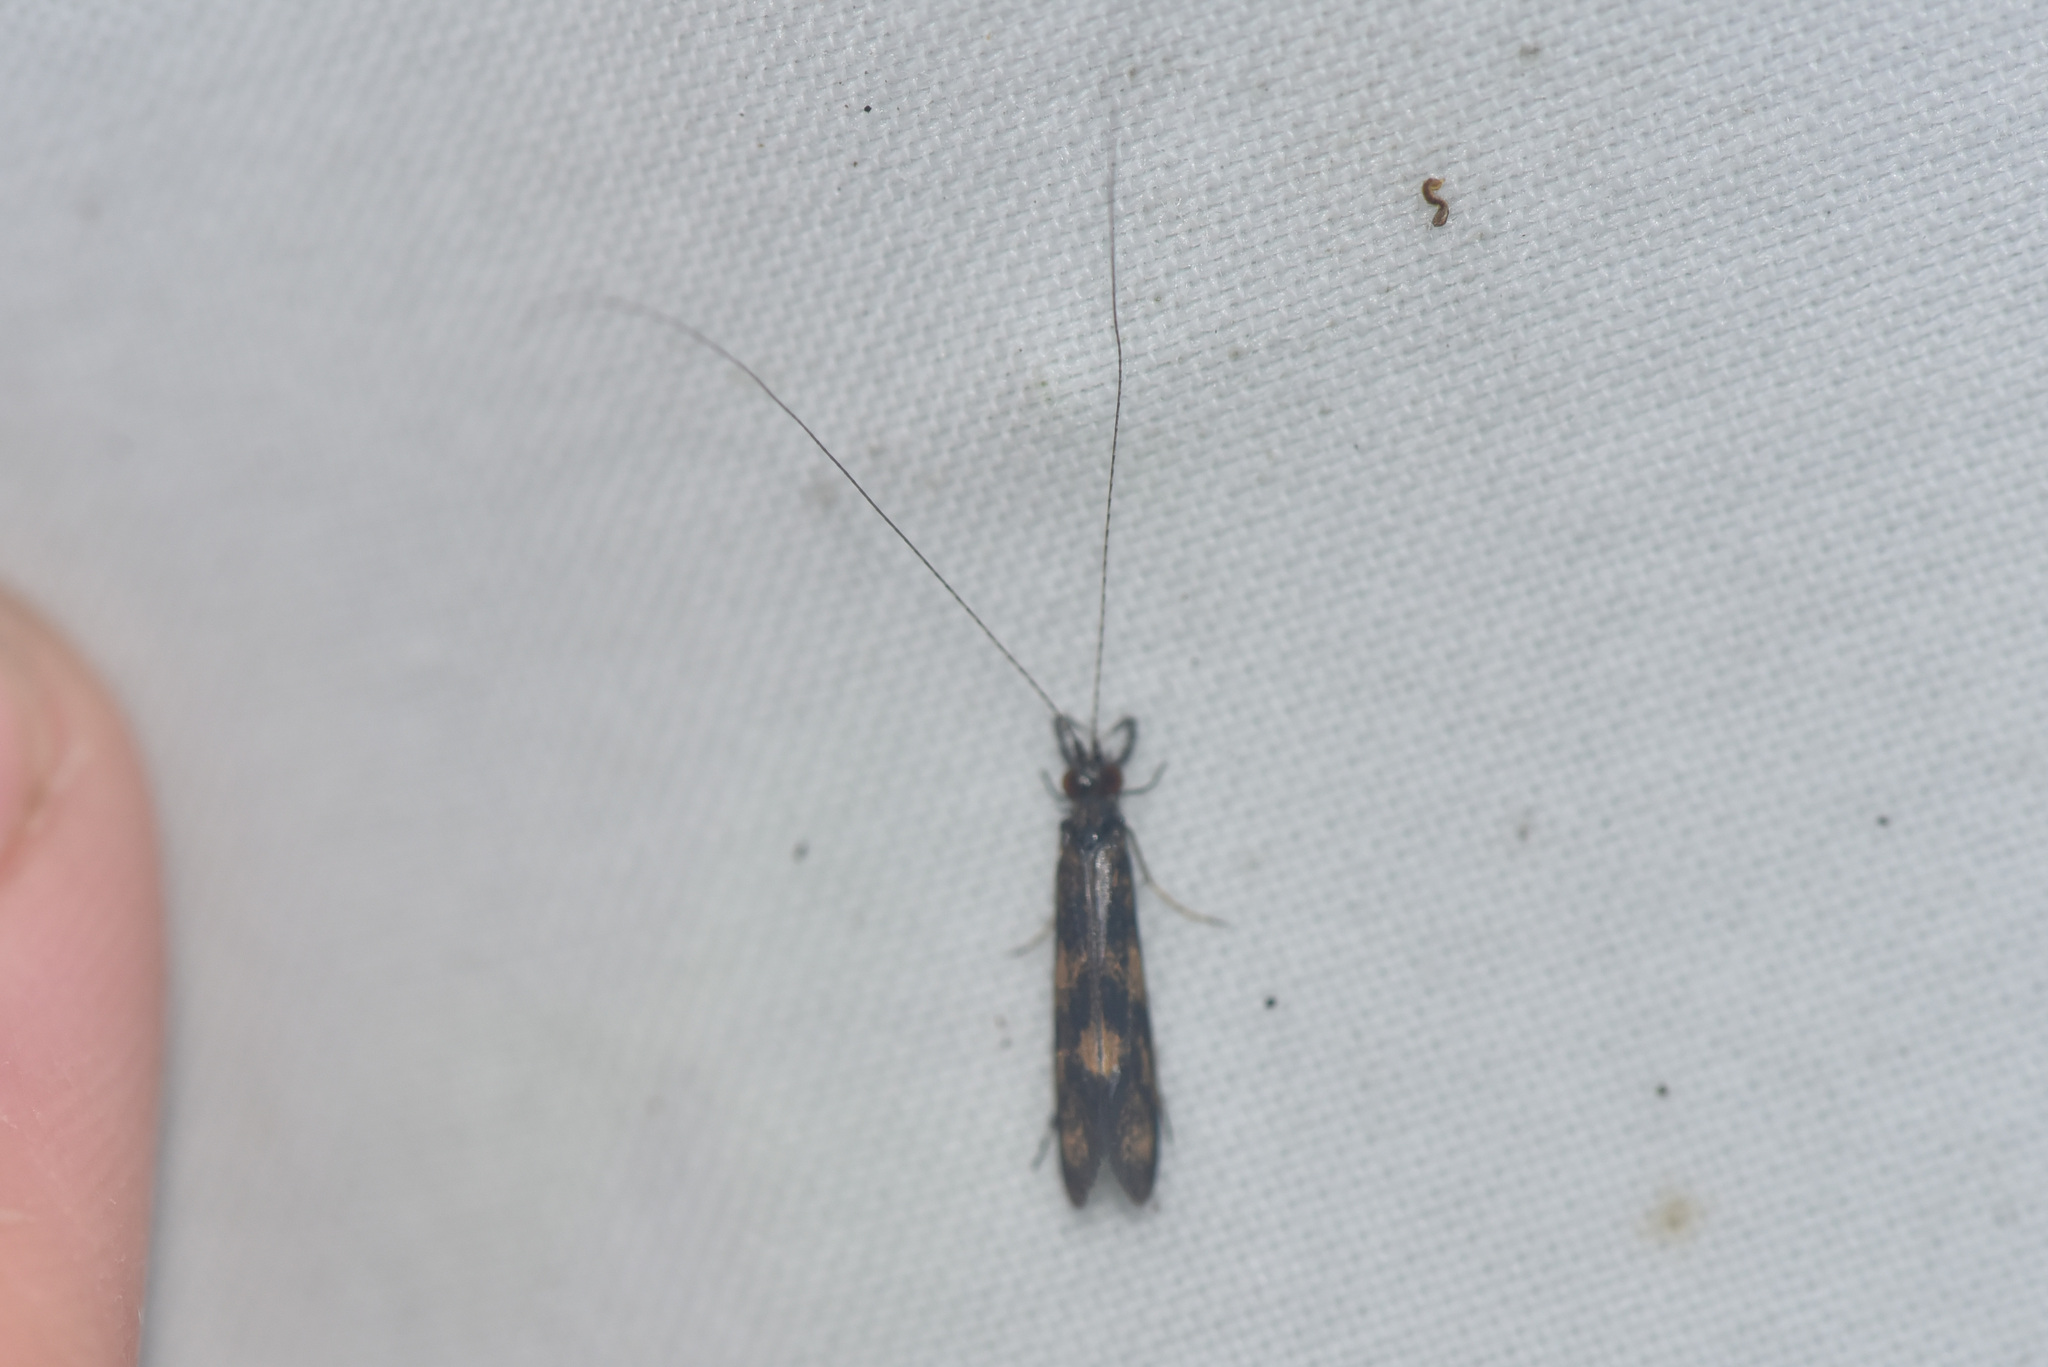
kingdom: Animalia
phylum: Arthropoda
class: Insecta
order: Trichoptera
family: Leptoceridae
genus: Mystacides
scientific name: Mystacides interjectus
